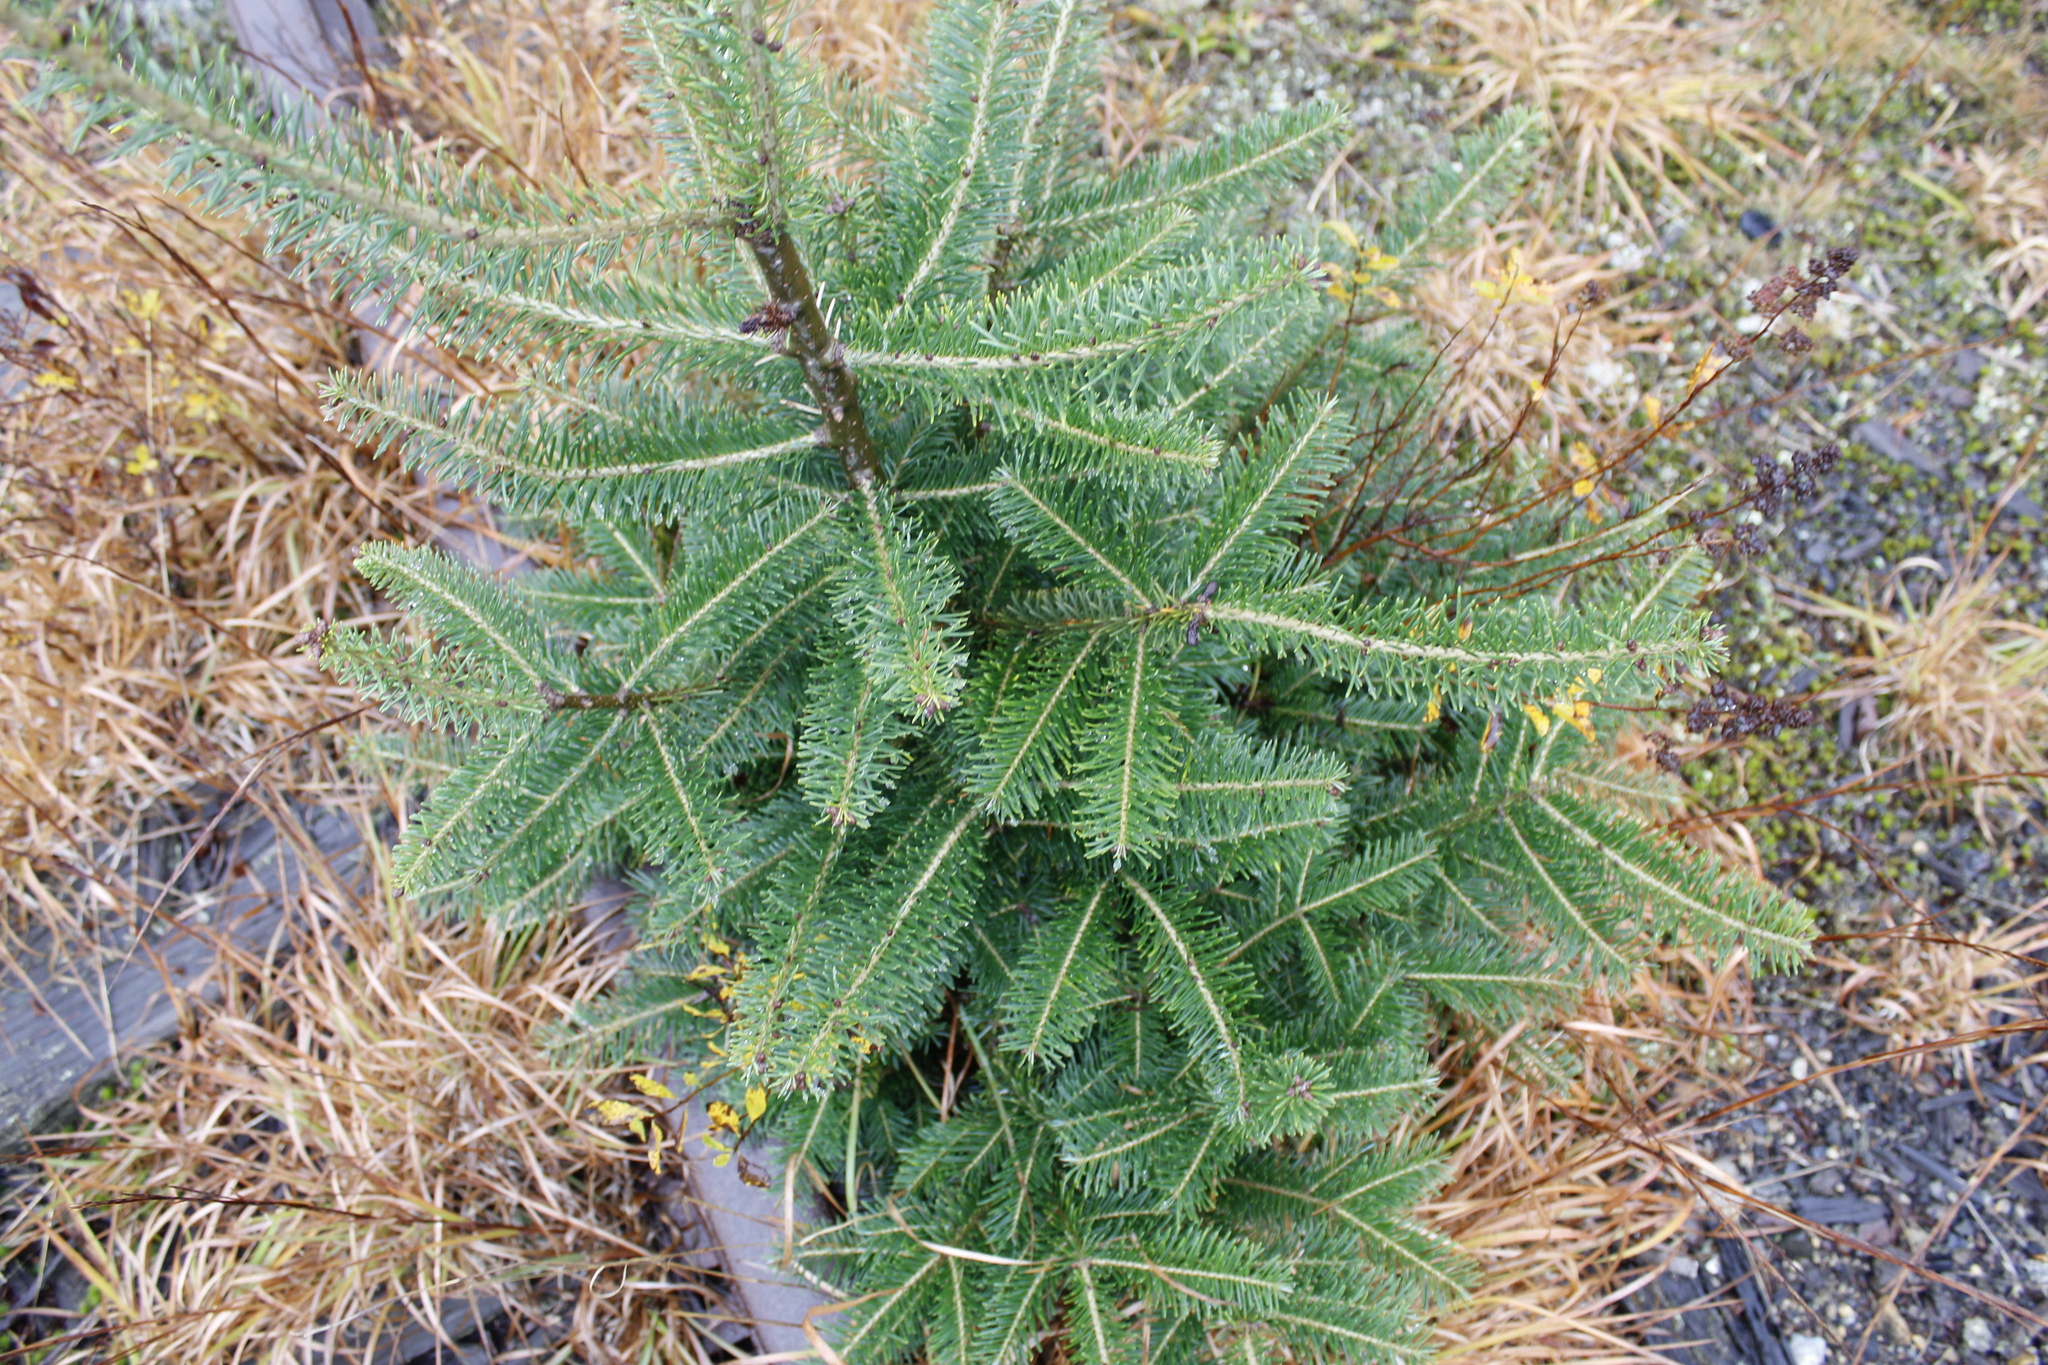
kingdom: Plantae
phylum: Tracheophyta
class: Pinopsida
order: Pinales
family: Pinaceae
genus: Abies
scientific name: Abies balsamea
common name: Balsam fir
